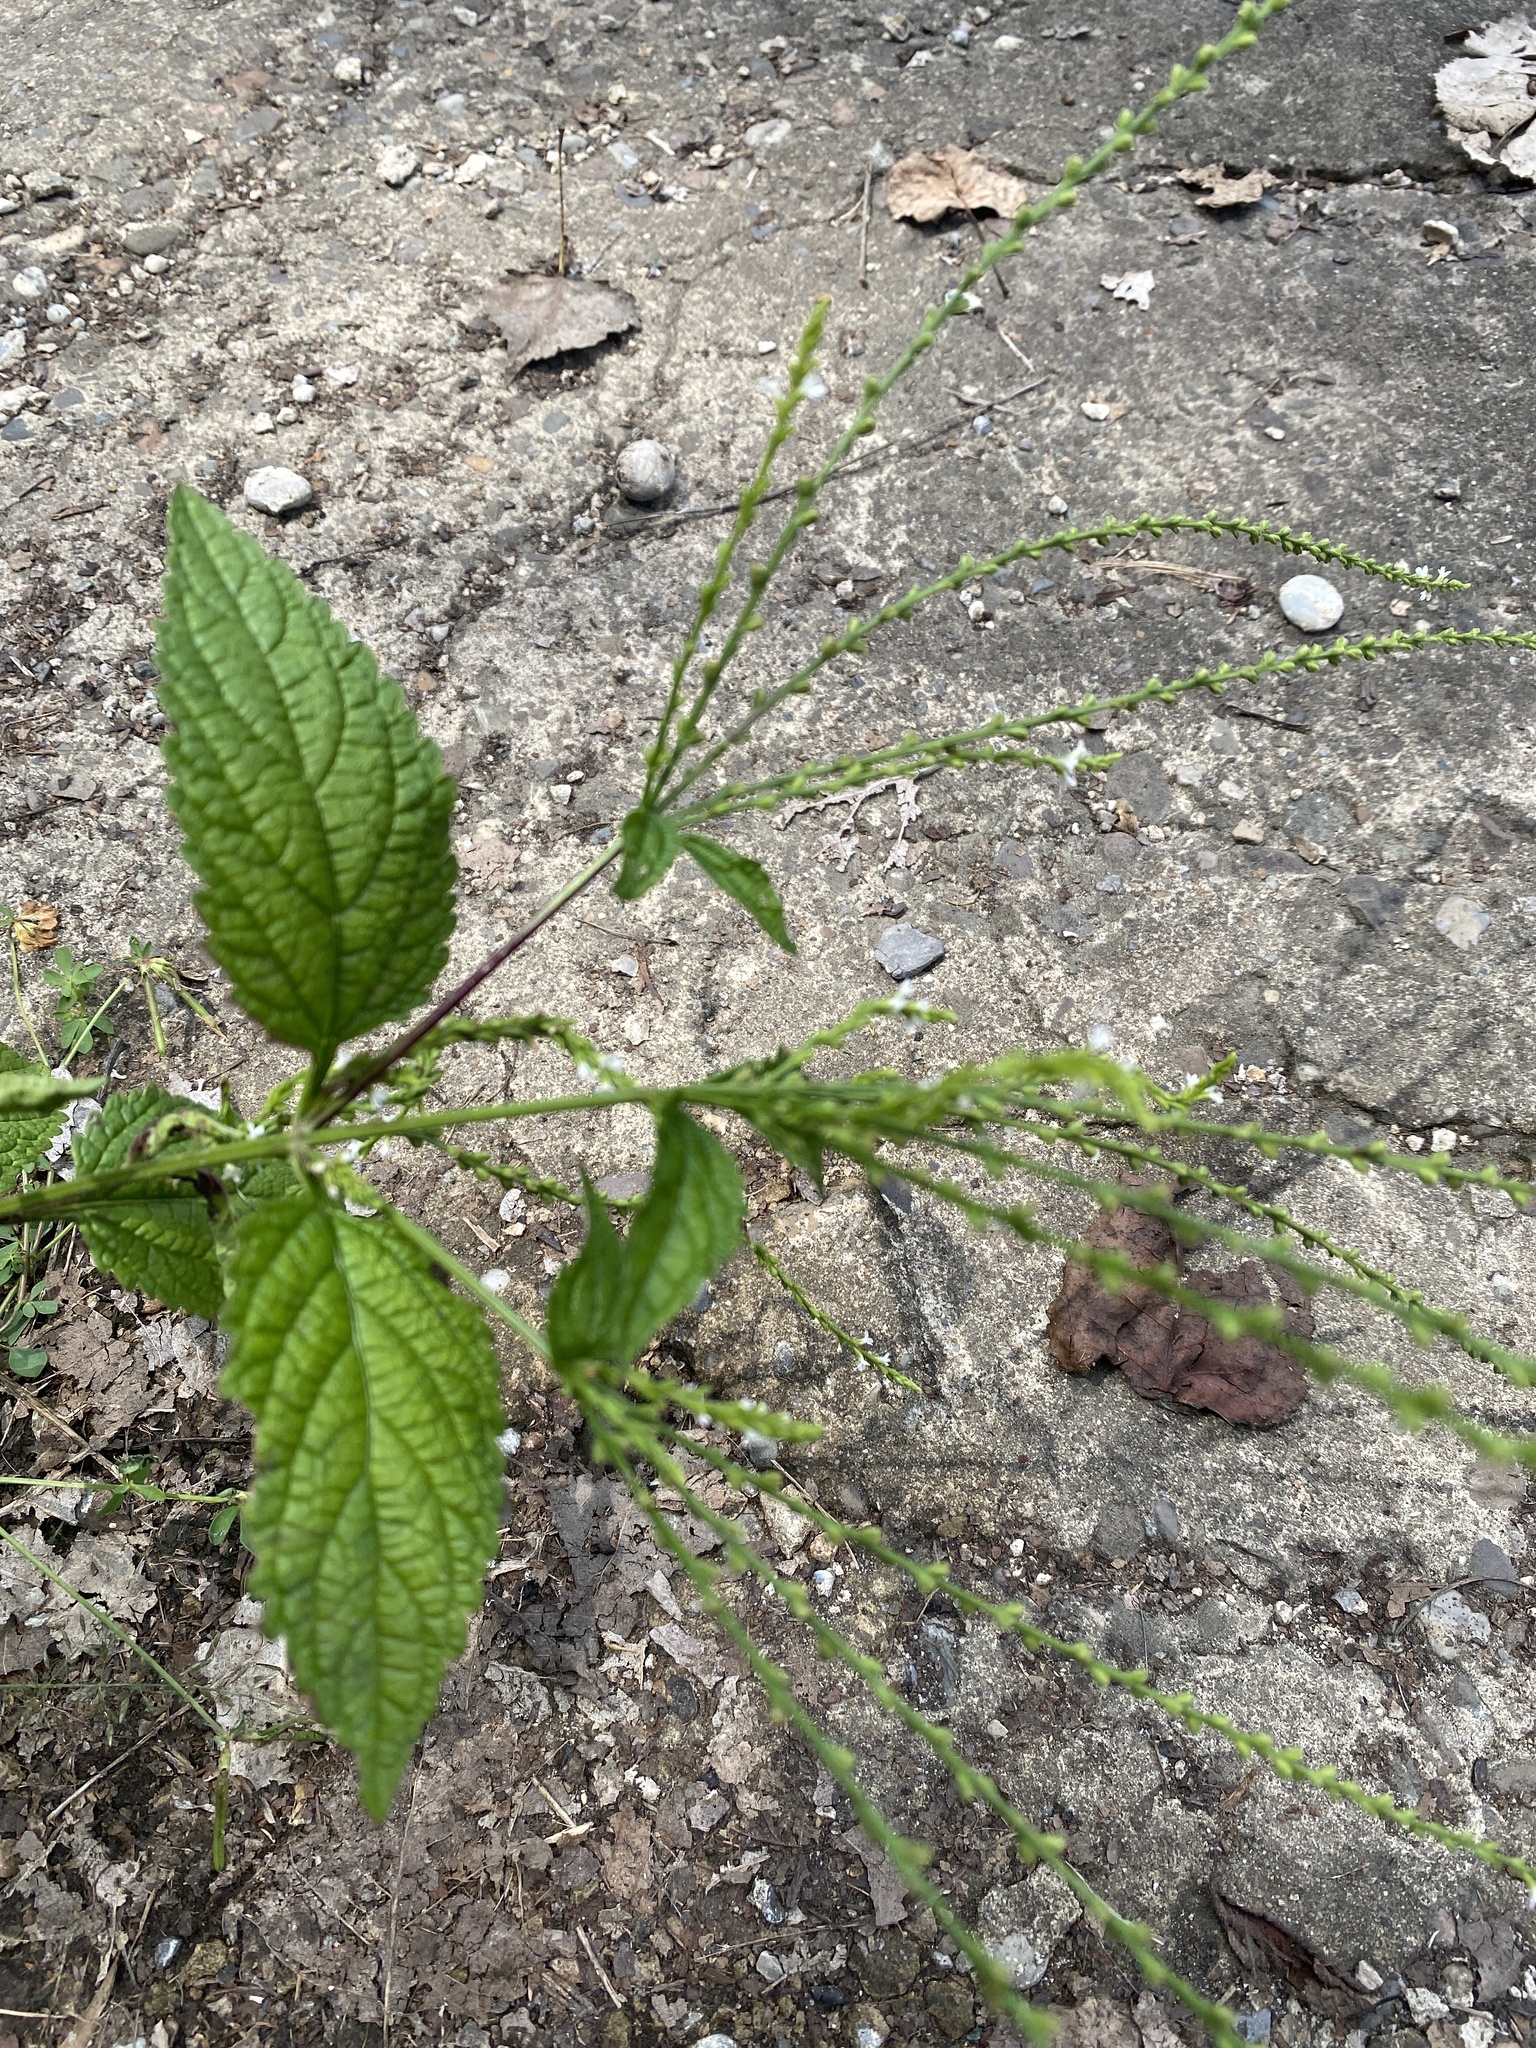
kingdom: Plantae
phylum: Tracheophyta
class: Magnoliopsida
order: Lamiales
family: Verbenaceae
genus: Verbena
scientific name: Verbena urticifolia
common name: Nettle-leaved vervain
